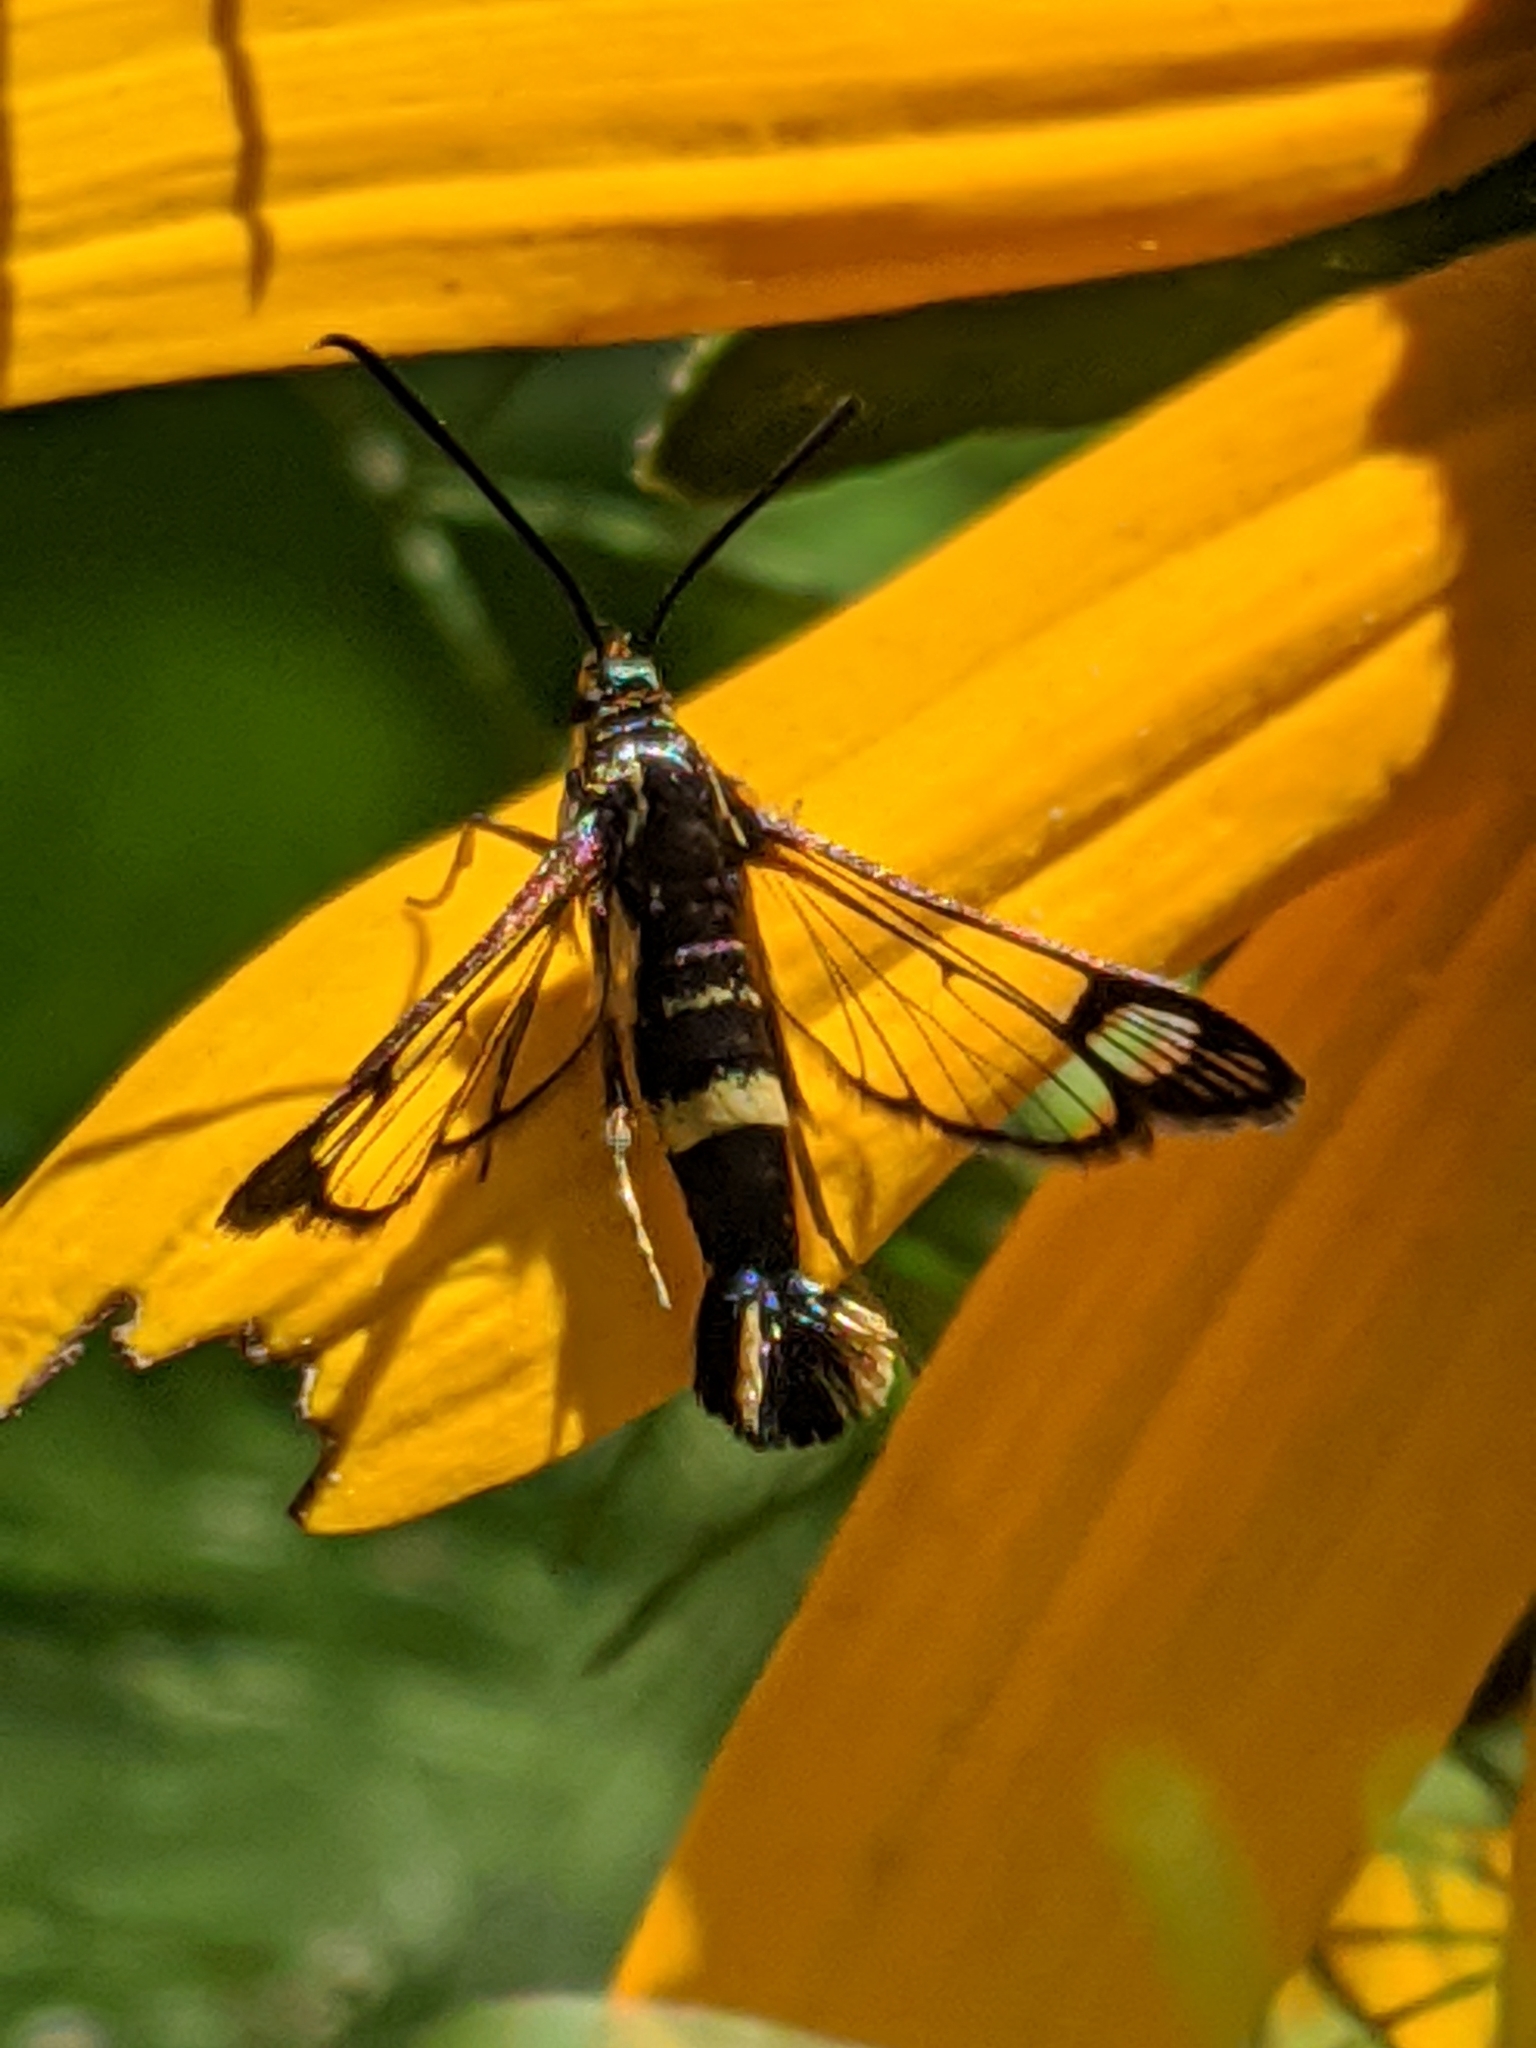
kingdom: Animalia
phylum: Arthropoda
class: Insecta
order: Lepidoptera
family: Sesiidae
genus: Synanthedon
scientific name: Synanthedon scitula
